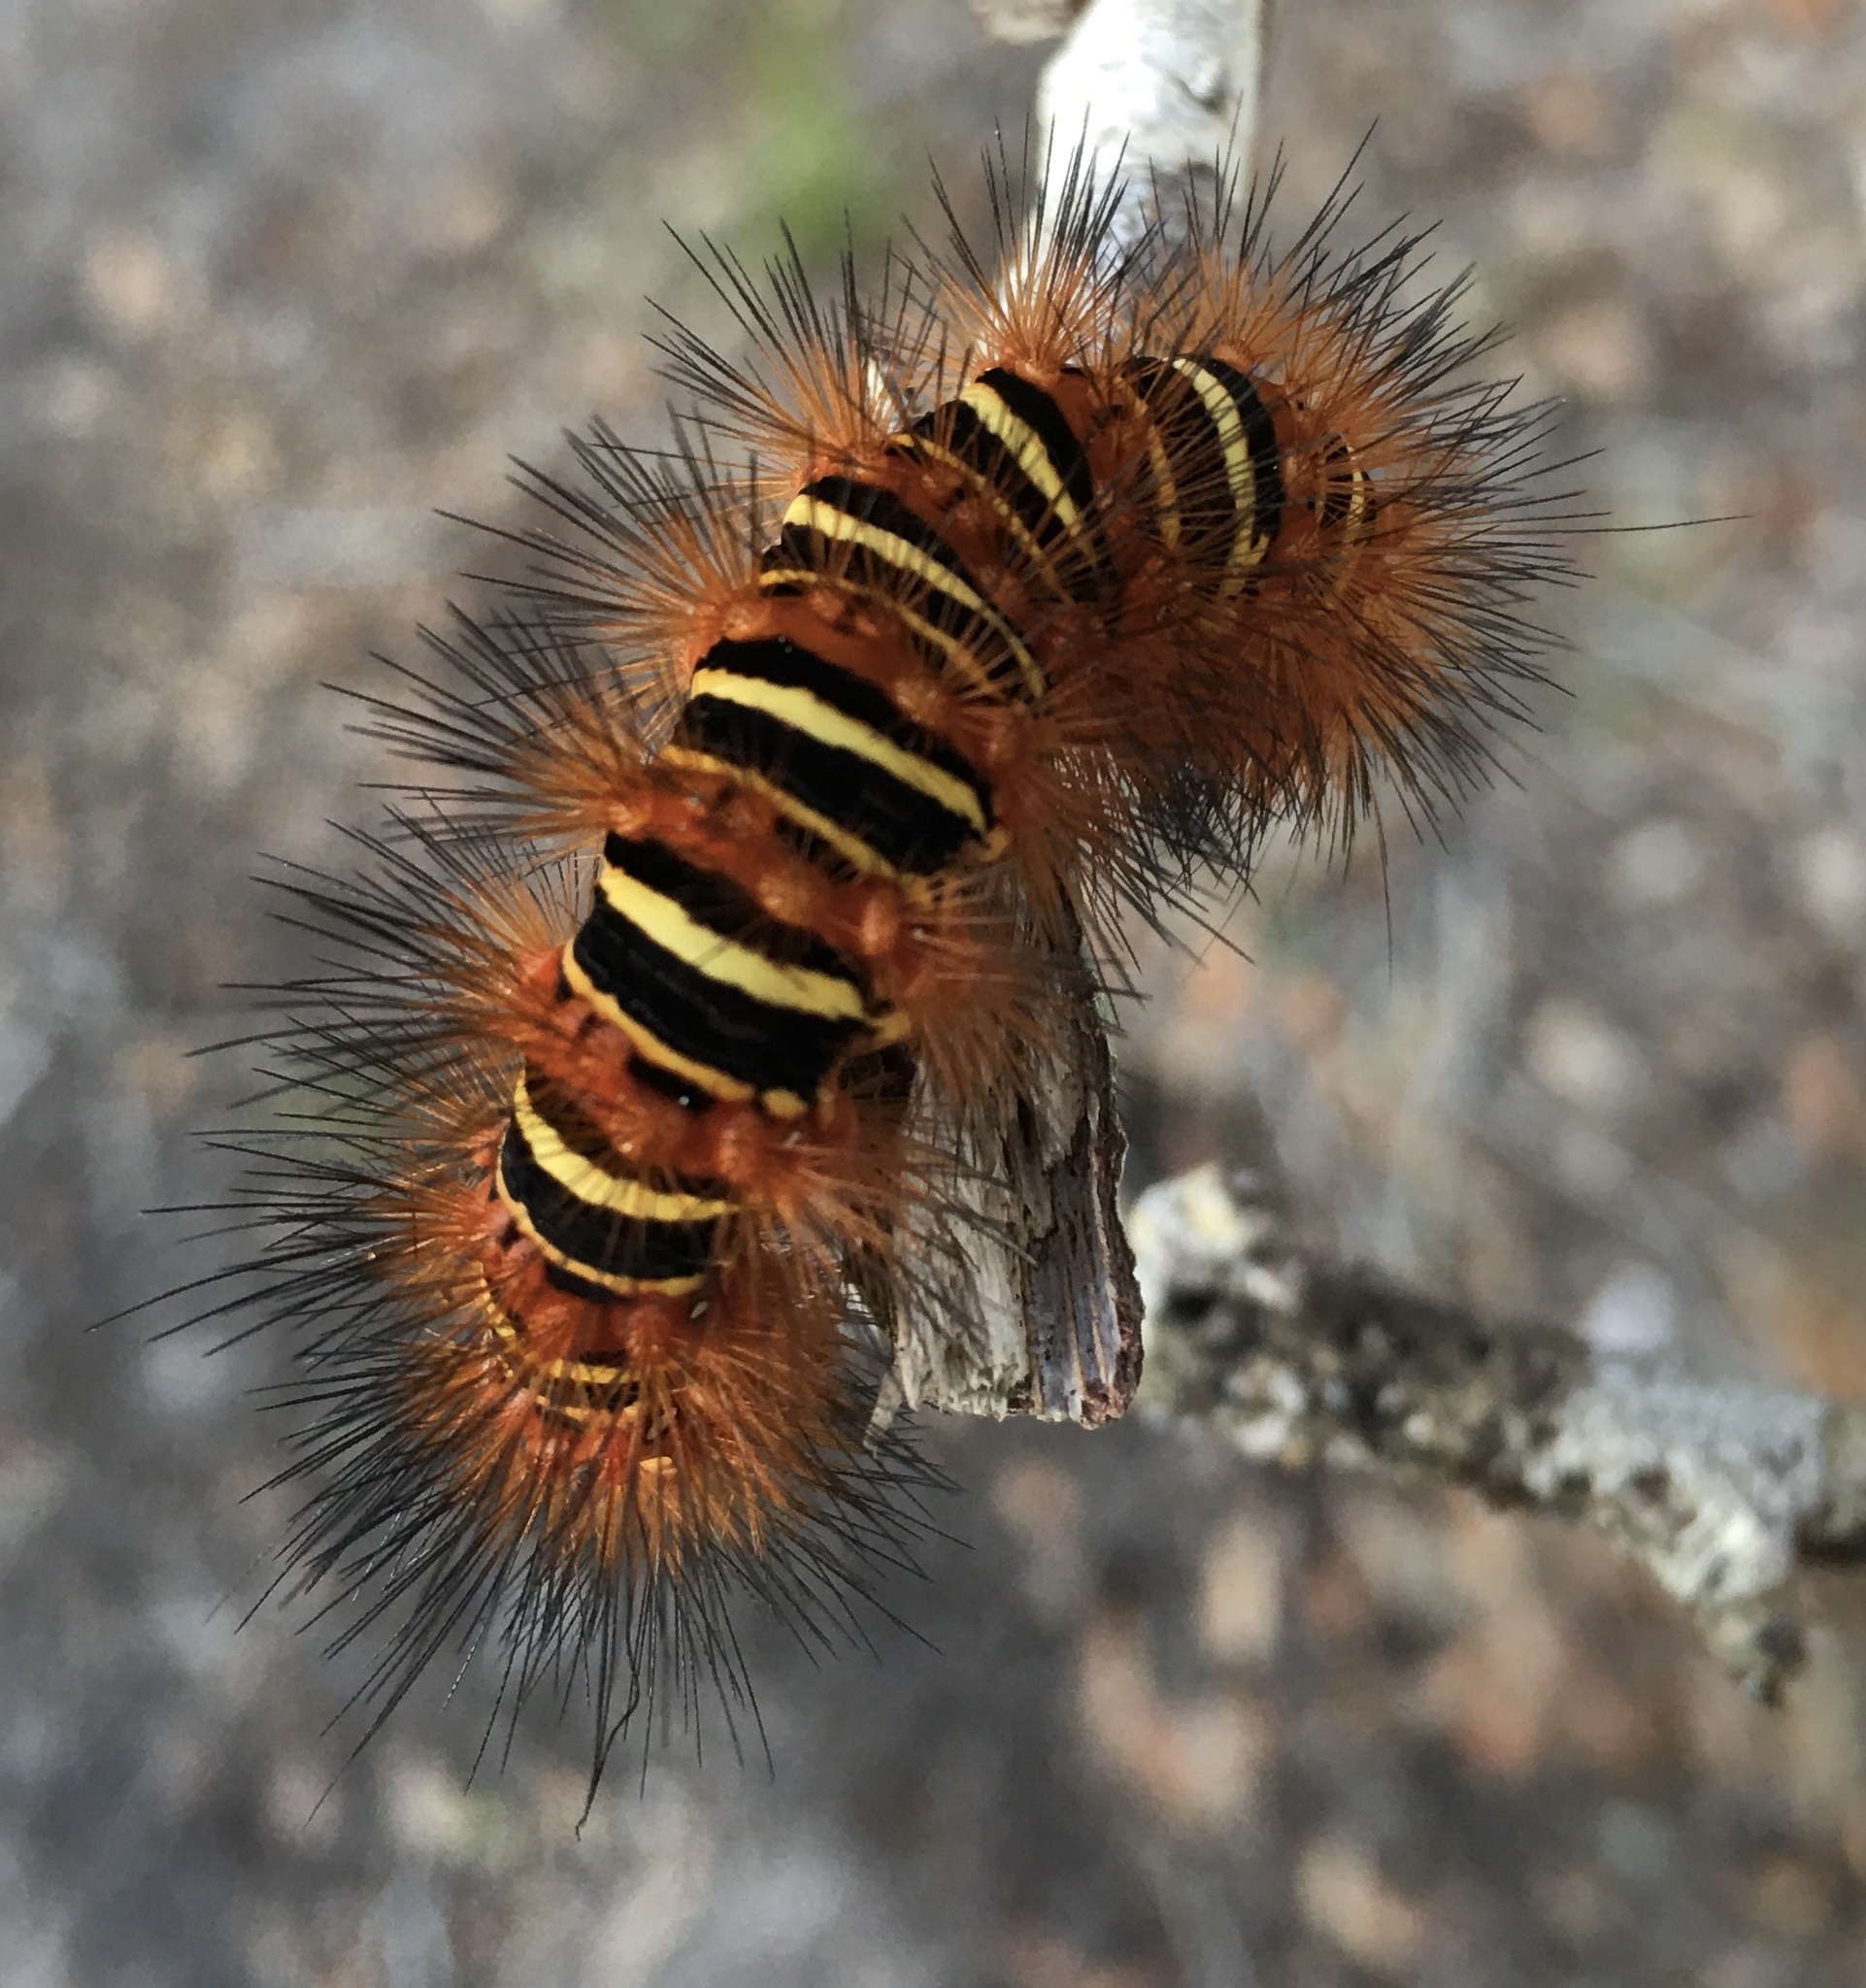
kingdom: Animalia
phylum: Arthropoda
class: Insecta
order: Lepidoptera
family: Erebidae
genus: Seirarctia
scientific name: Seirarctia echo
